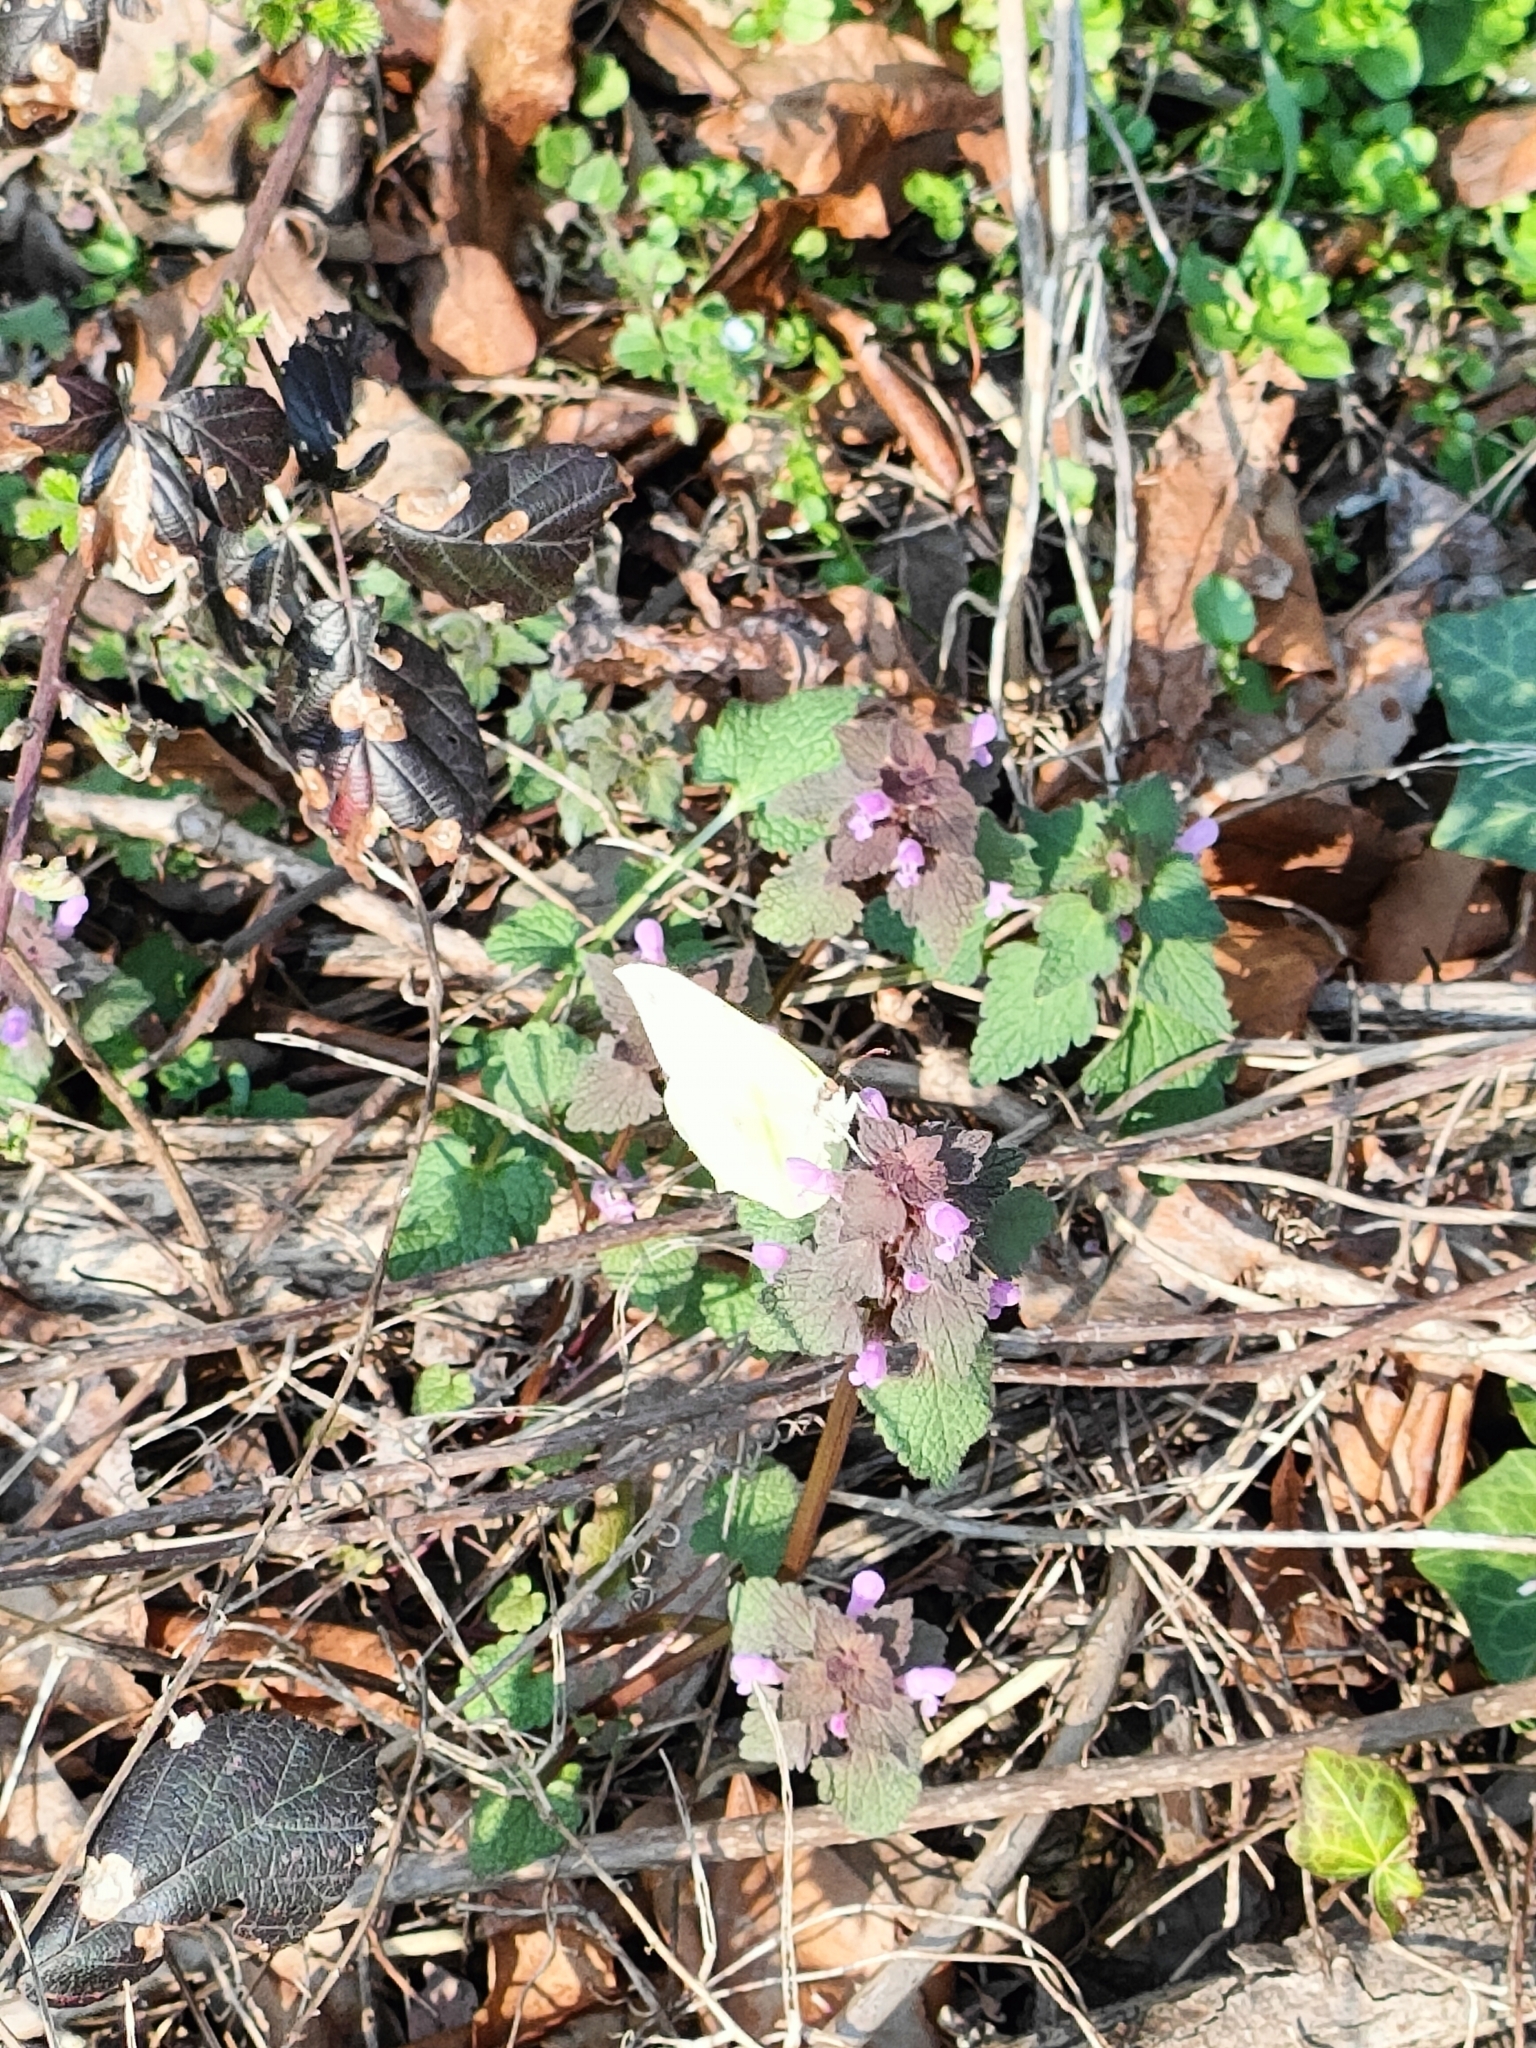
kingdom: Animalia
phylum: Arthropoda
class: Insecta
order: Lepidoptera
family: Pieridae
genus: Gonepteryx
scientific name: Gonepteryx rhamni
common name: Brimstone
